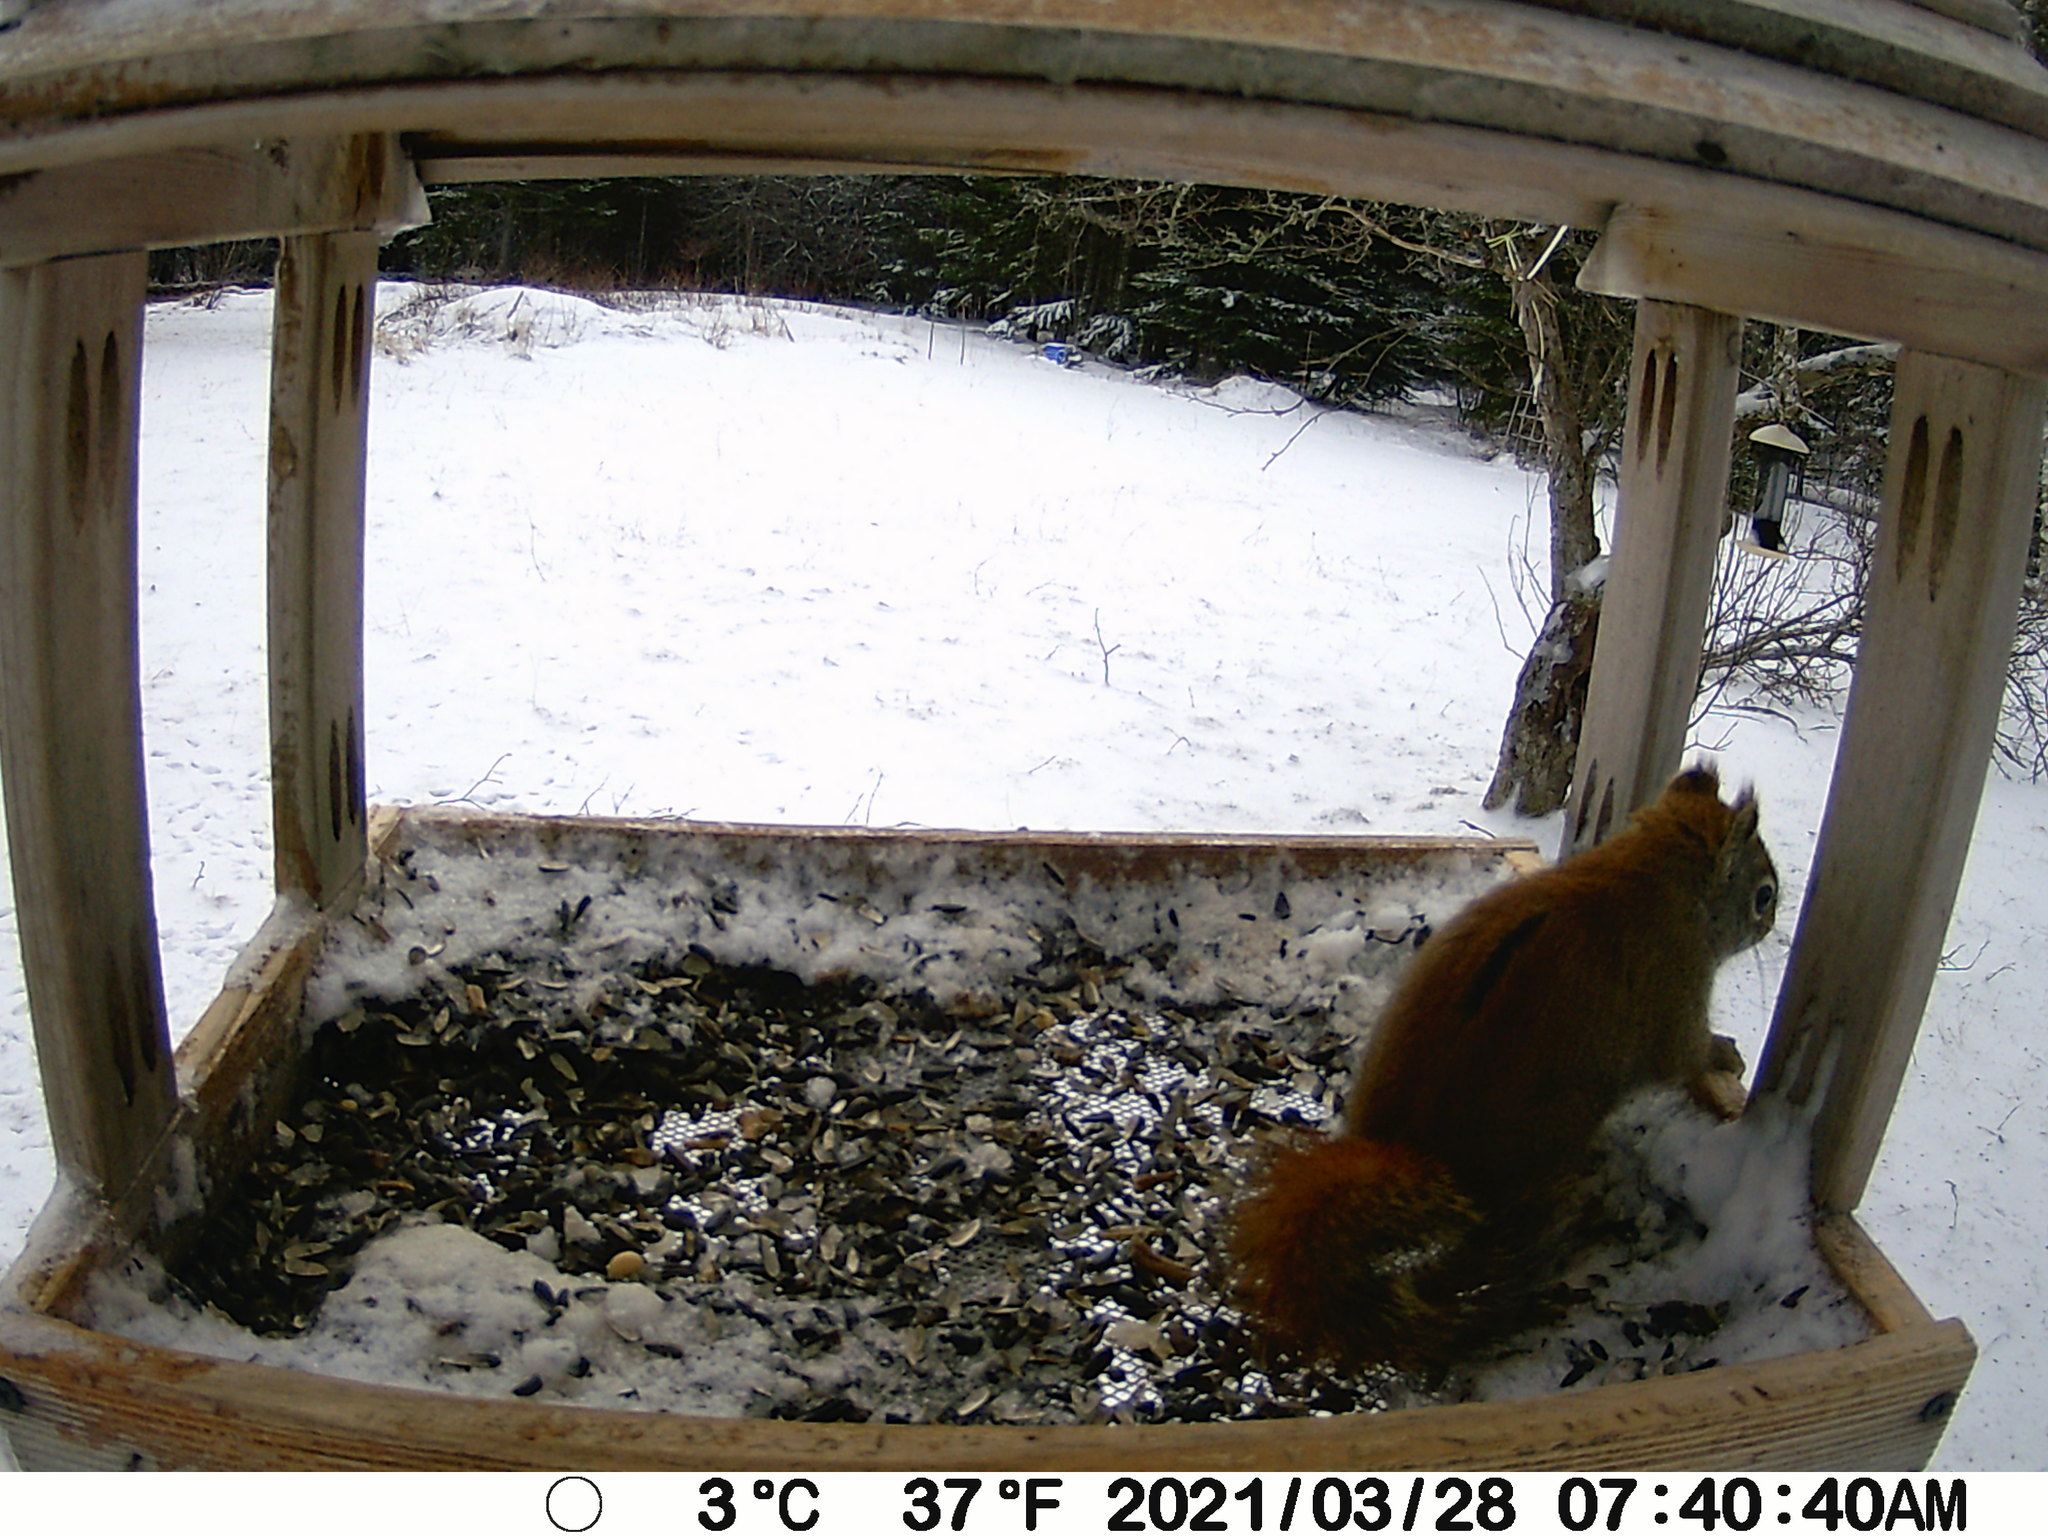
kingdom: Animalia
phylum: Chordata
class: Mammalia
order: Rodentia
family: Sciuridae
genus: Tamiasciurus
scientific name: Tamiasciurus hudsonicus
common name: Red squirrel
